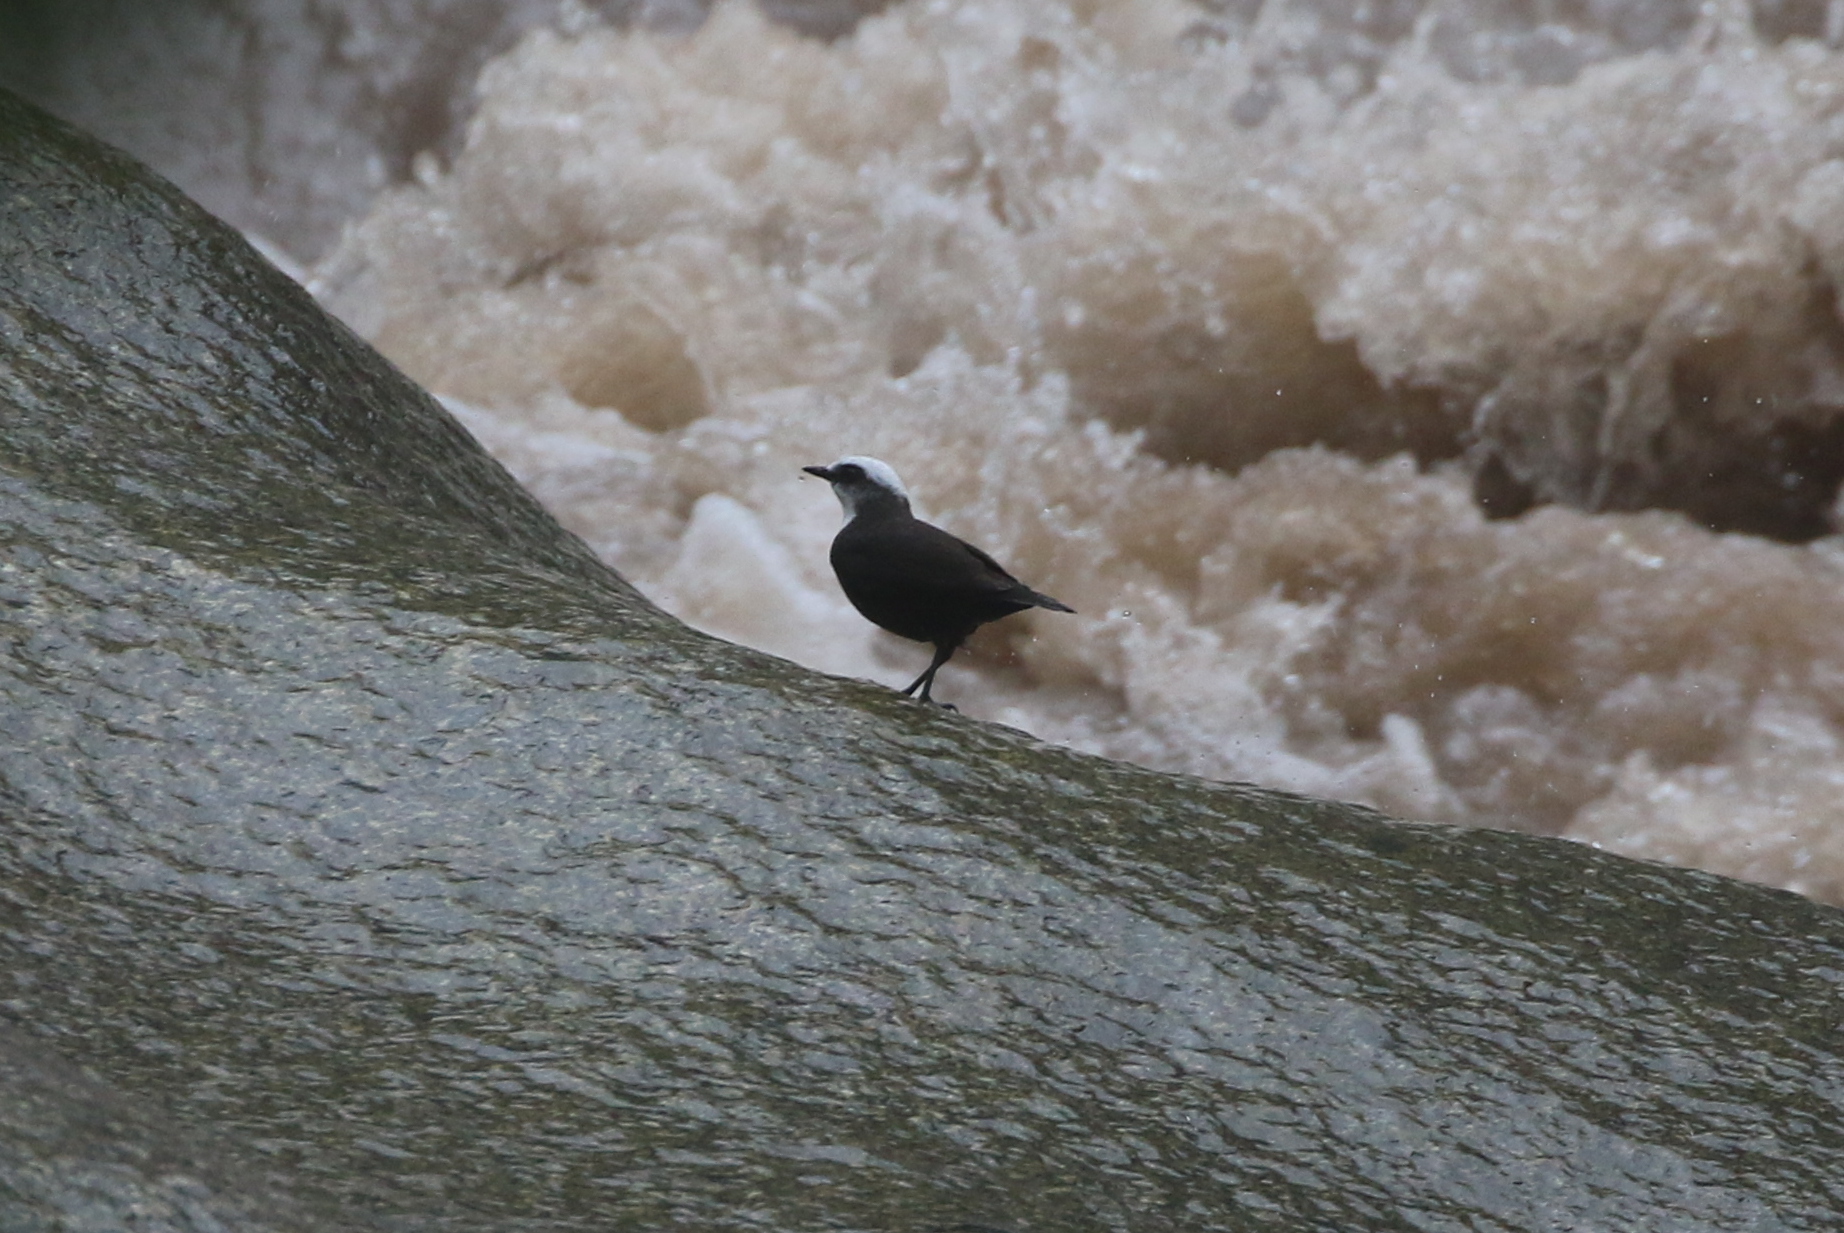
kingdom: Animalia
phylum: Chordata
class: Aves
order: Passeriformes
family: Cinclidae
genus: Cinclus
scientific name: Cinclus leucocephalus
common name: White-capped dipper
